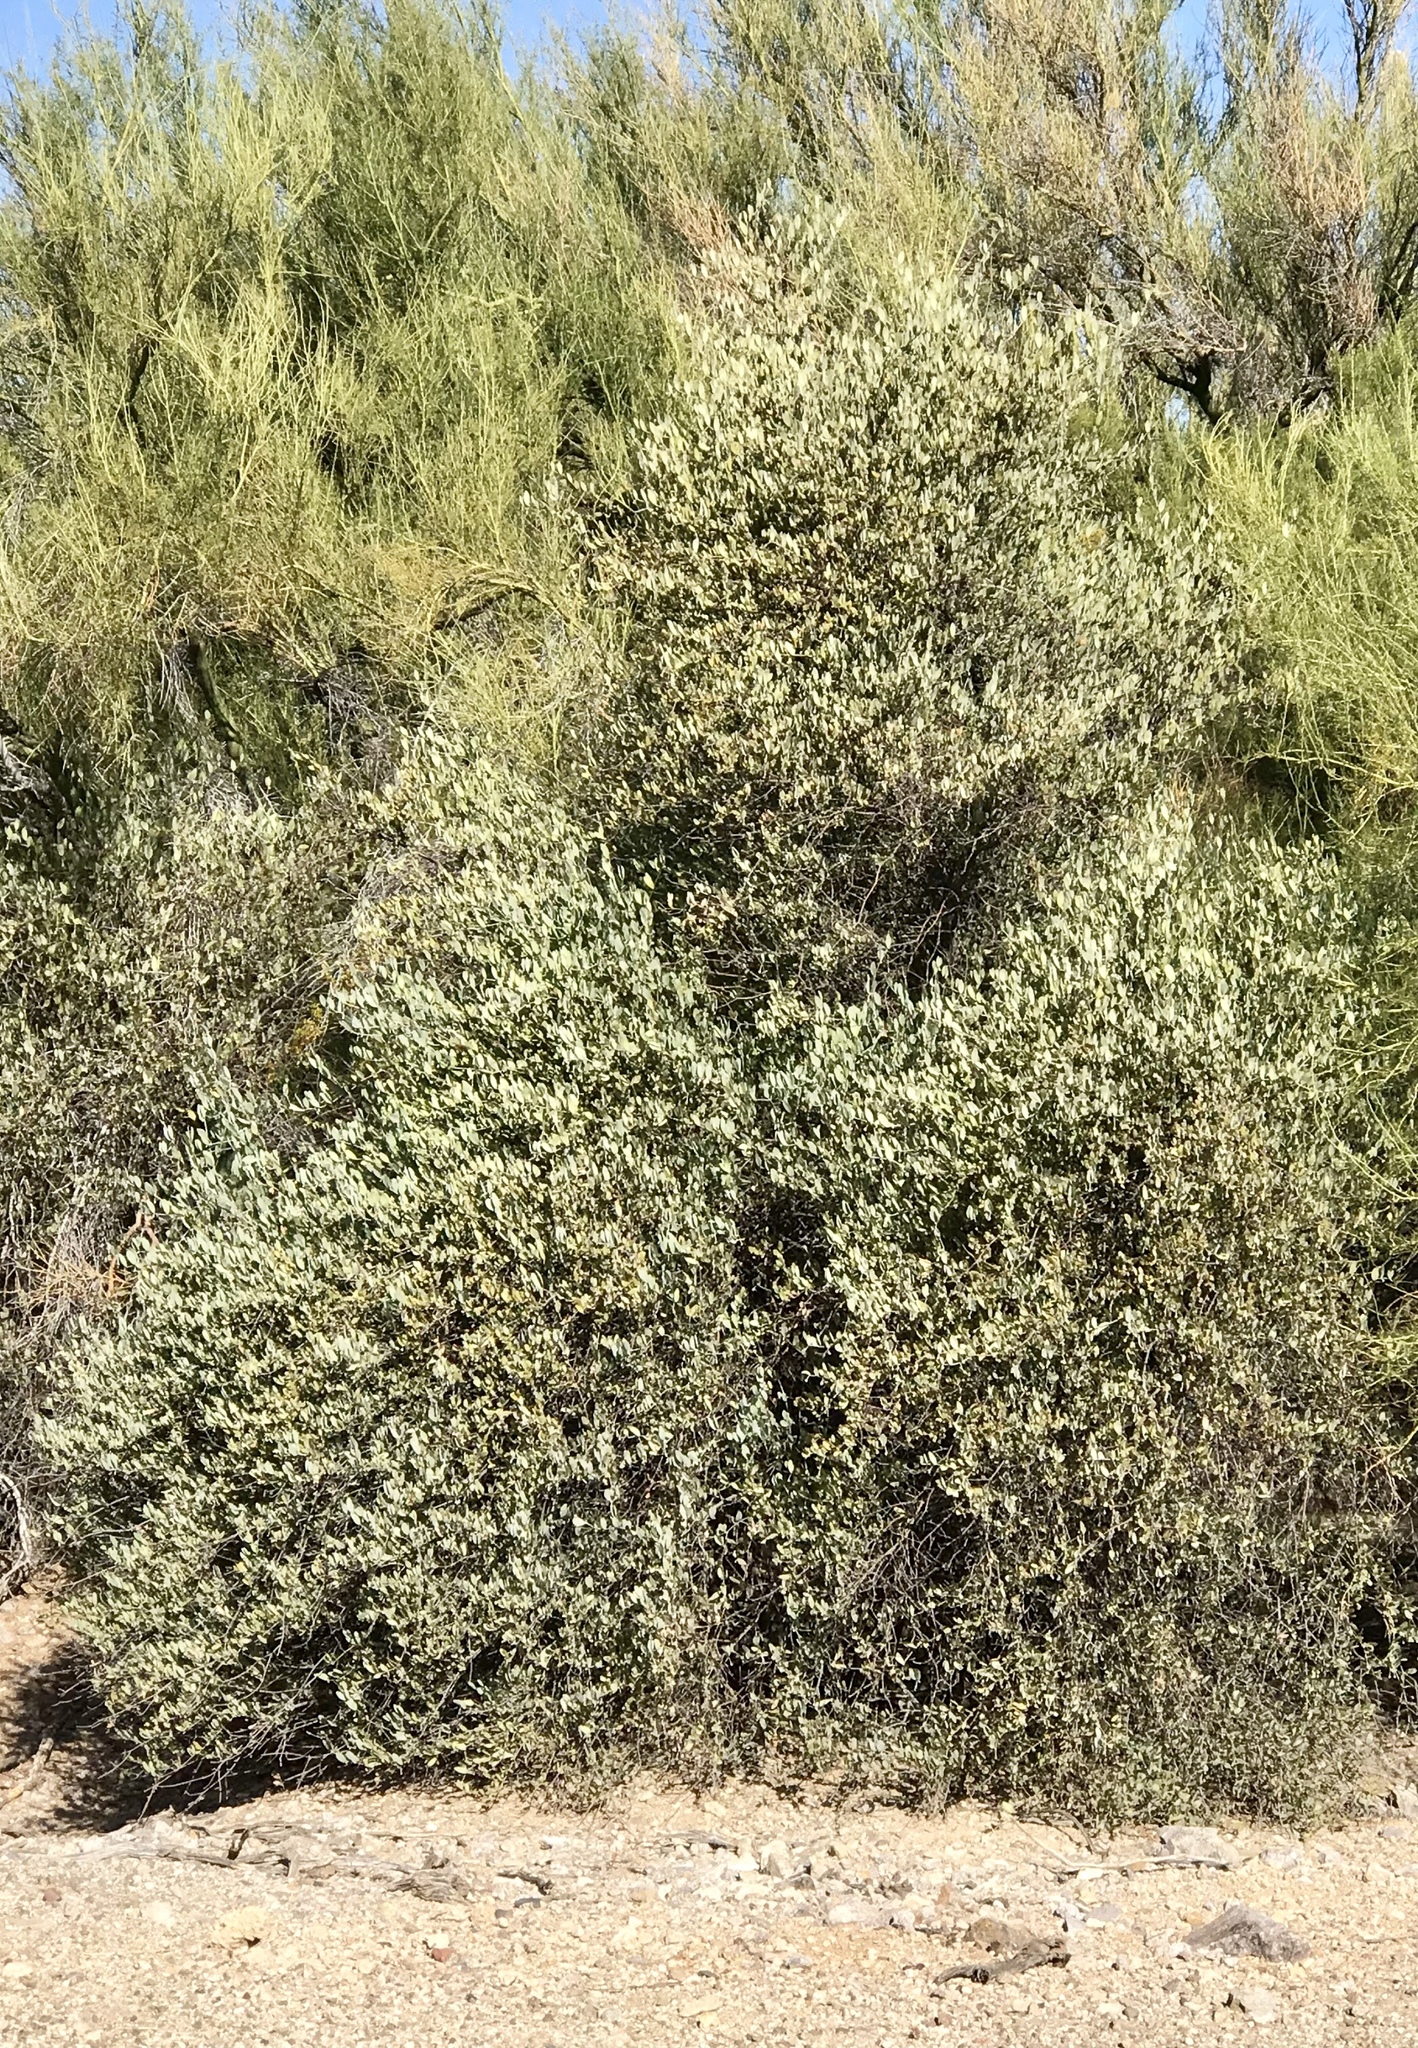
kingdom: Plantae
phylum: Tracheophyta
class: Magnoliopsida
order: Caryophyllales
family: Simmondsiaceae
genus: Simmondsia
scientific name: Simmondsia chinensis
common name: Jojoba
